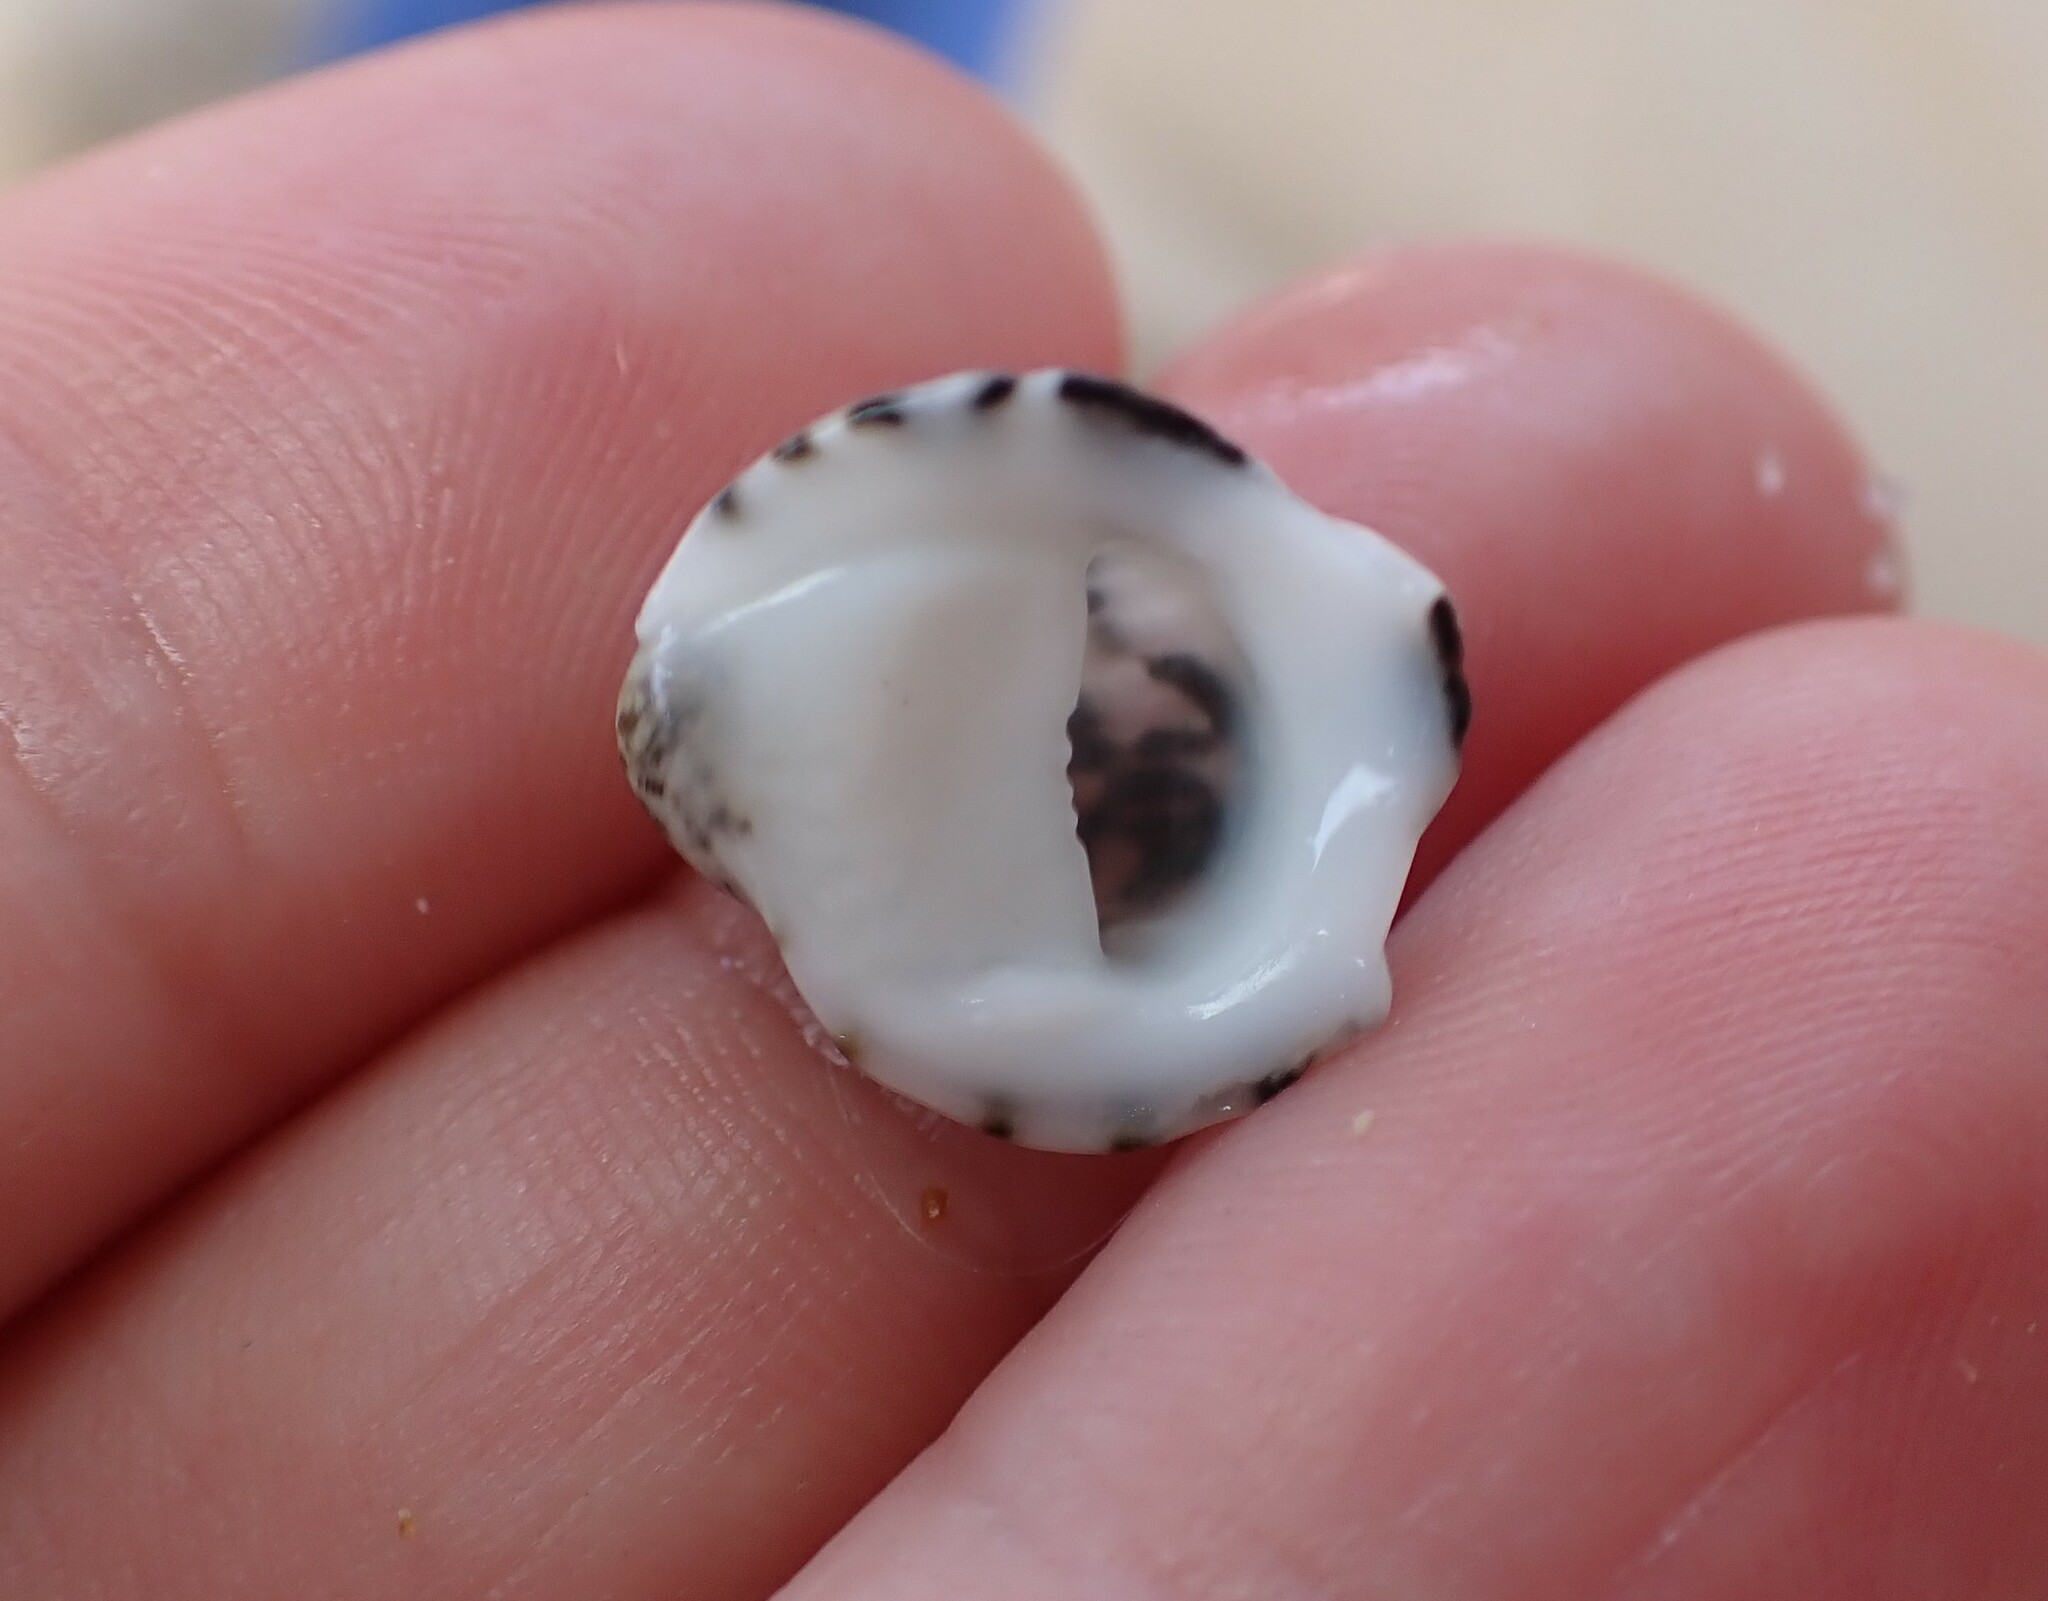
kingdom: Animalia
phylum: Mollusca
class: Gastropoda
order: Cycloneritida
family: Neritidae
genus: Nerita
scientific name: Nerita albicilla
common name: Blotched nerite
